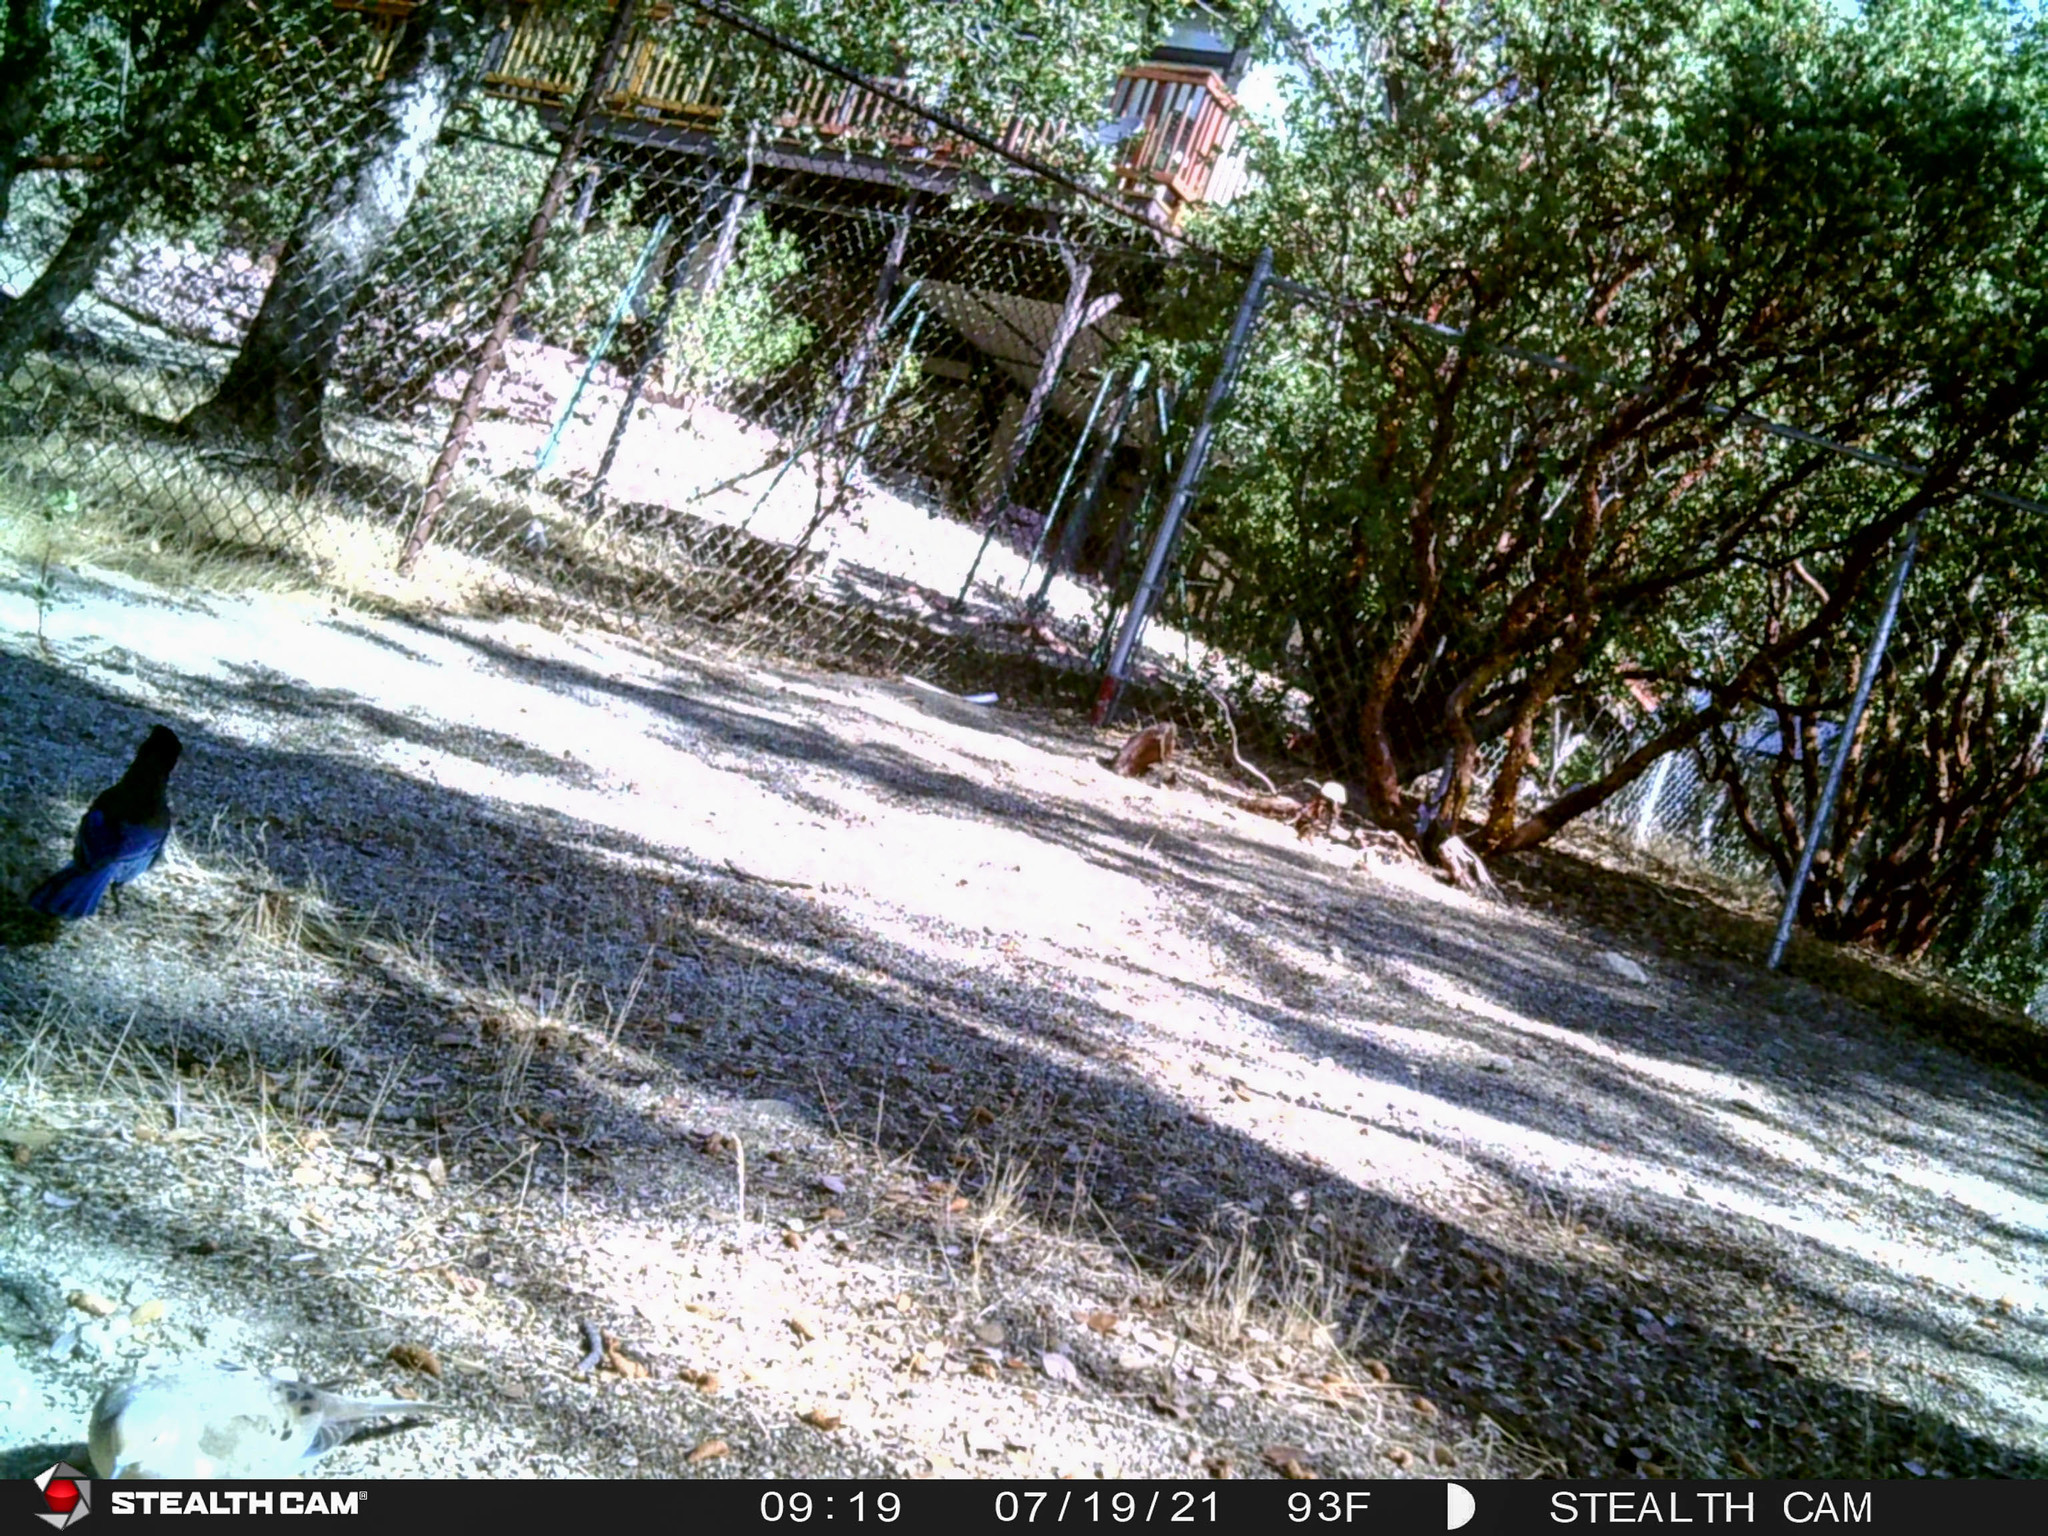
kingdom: Animalia
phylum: Chordata
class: Aves
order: Columbiformes
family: Columbidae
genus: Zenaida
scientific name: Zenaida macroura
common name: Mourning dove
